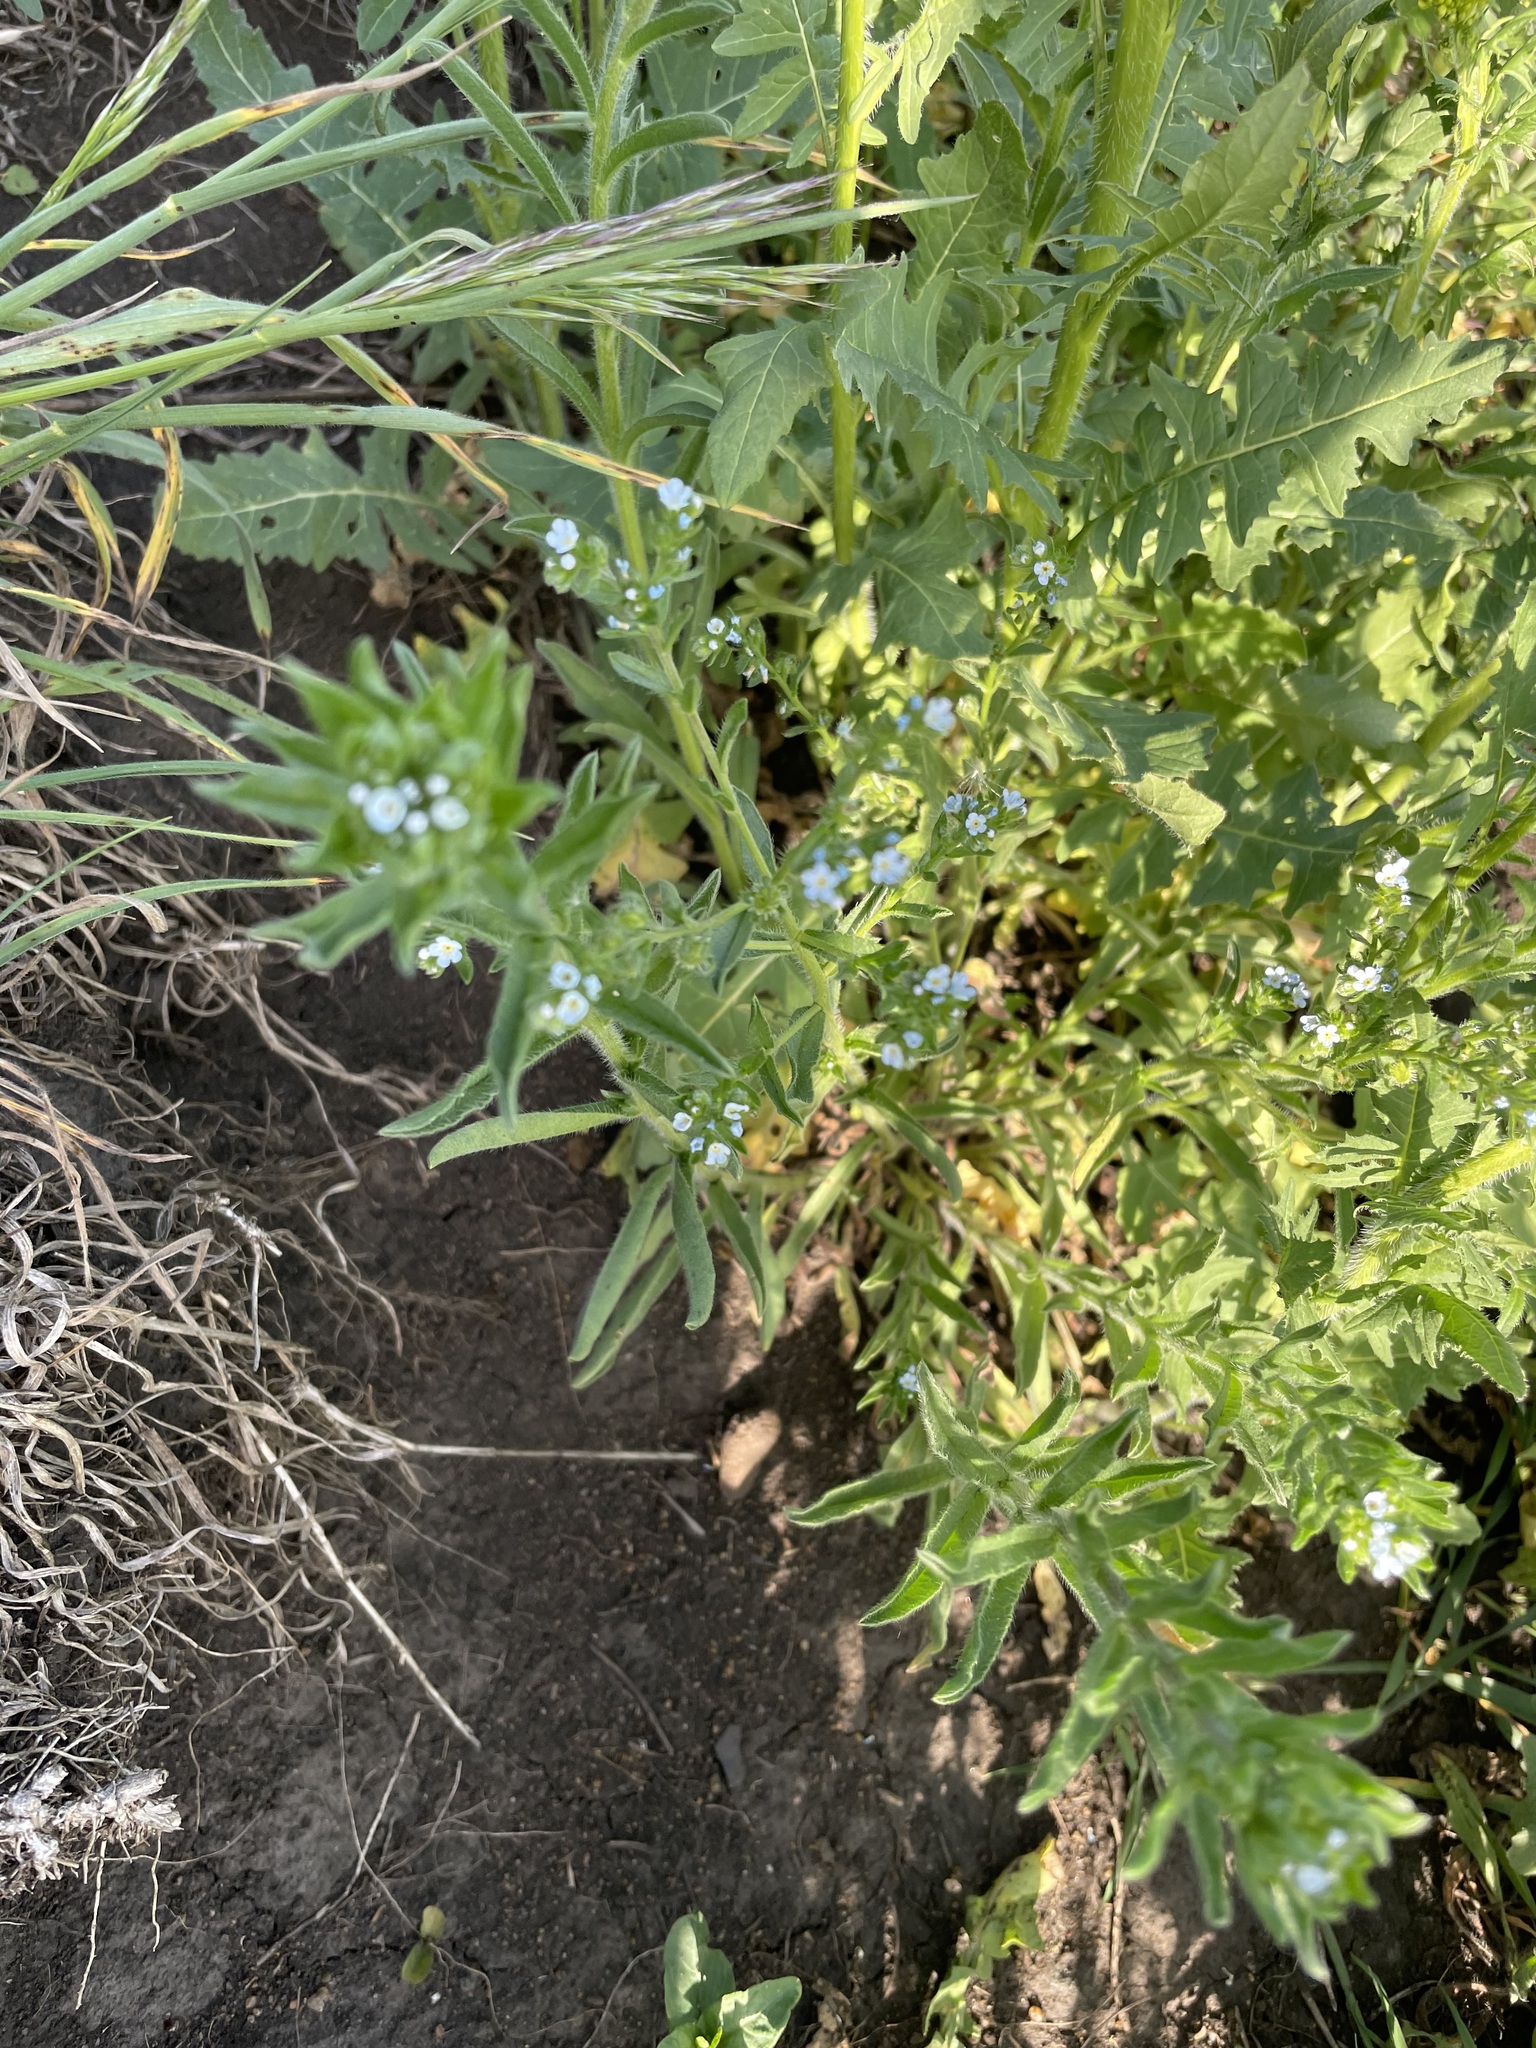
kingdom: Plantae
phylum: Tracheophyta
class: Magnoliopsida
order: Boraginales
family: Boraginaceae
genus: Lappula
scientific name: Lappula squarrosa
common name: European stickseed
